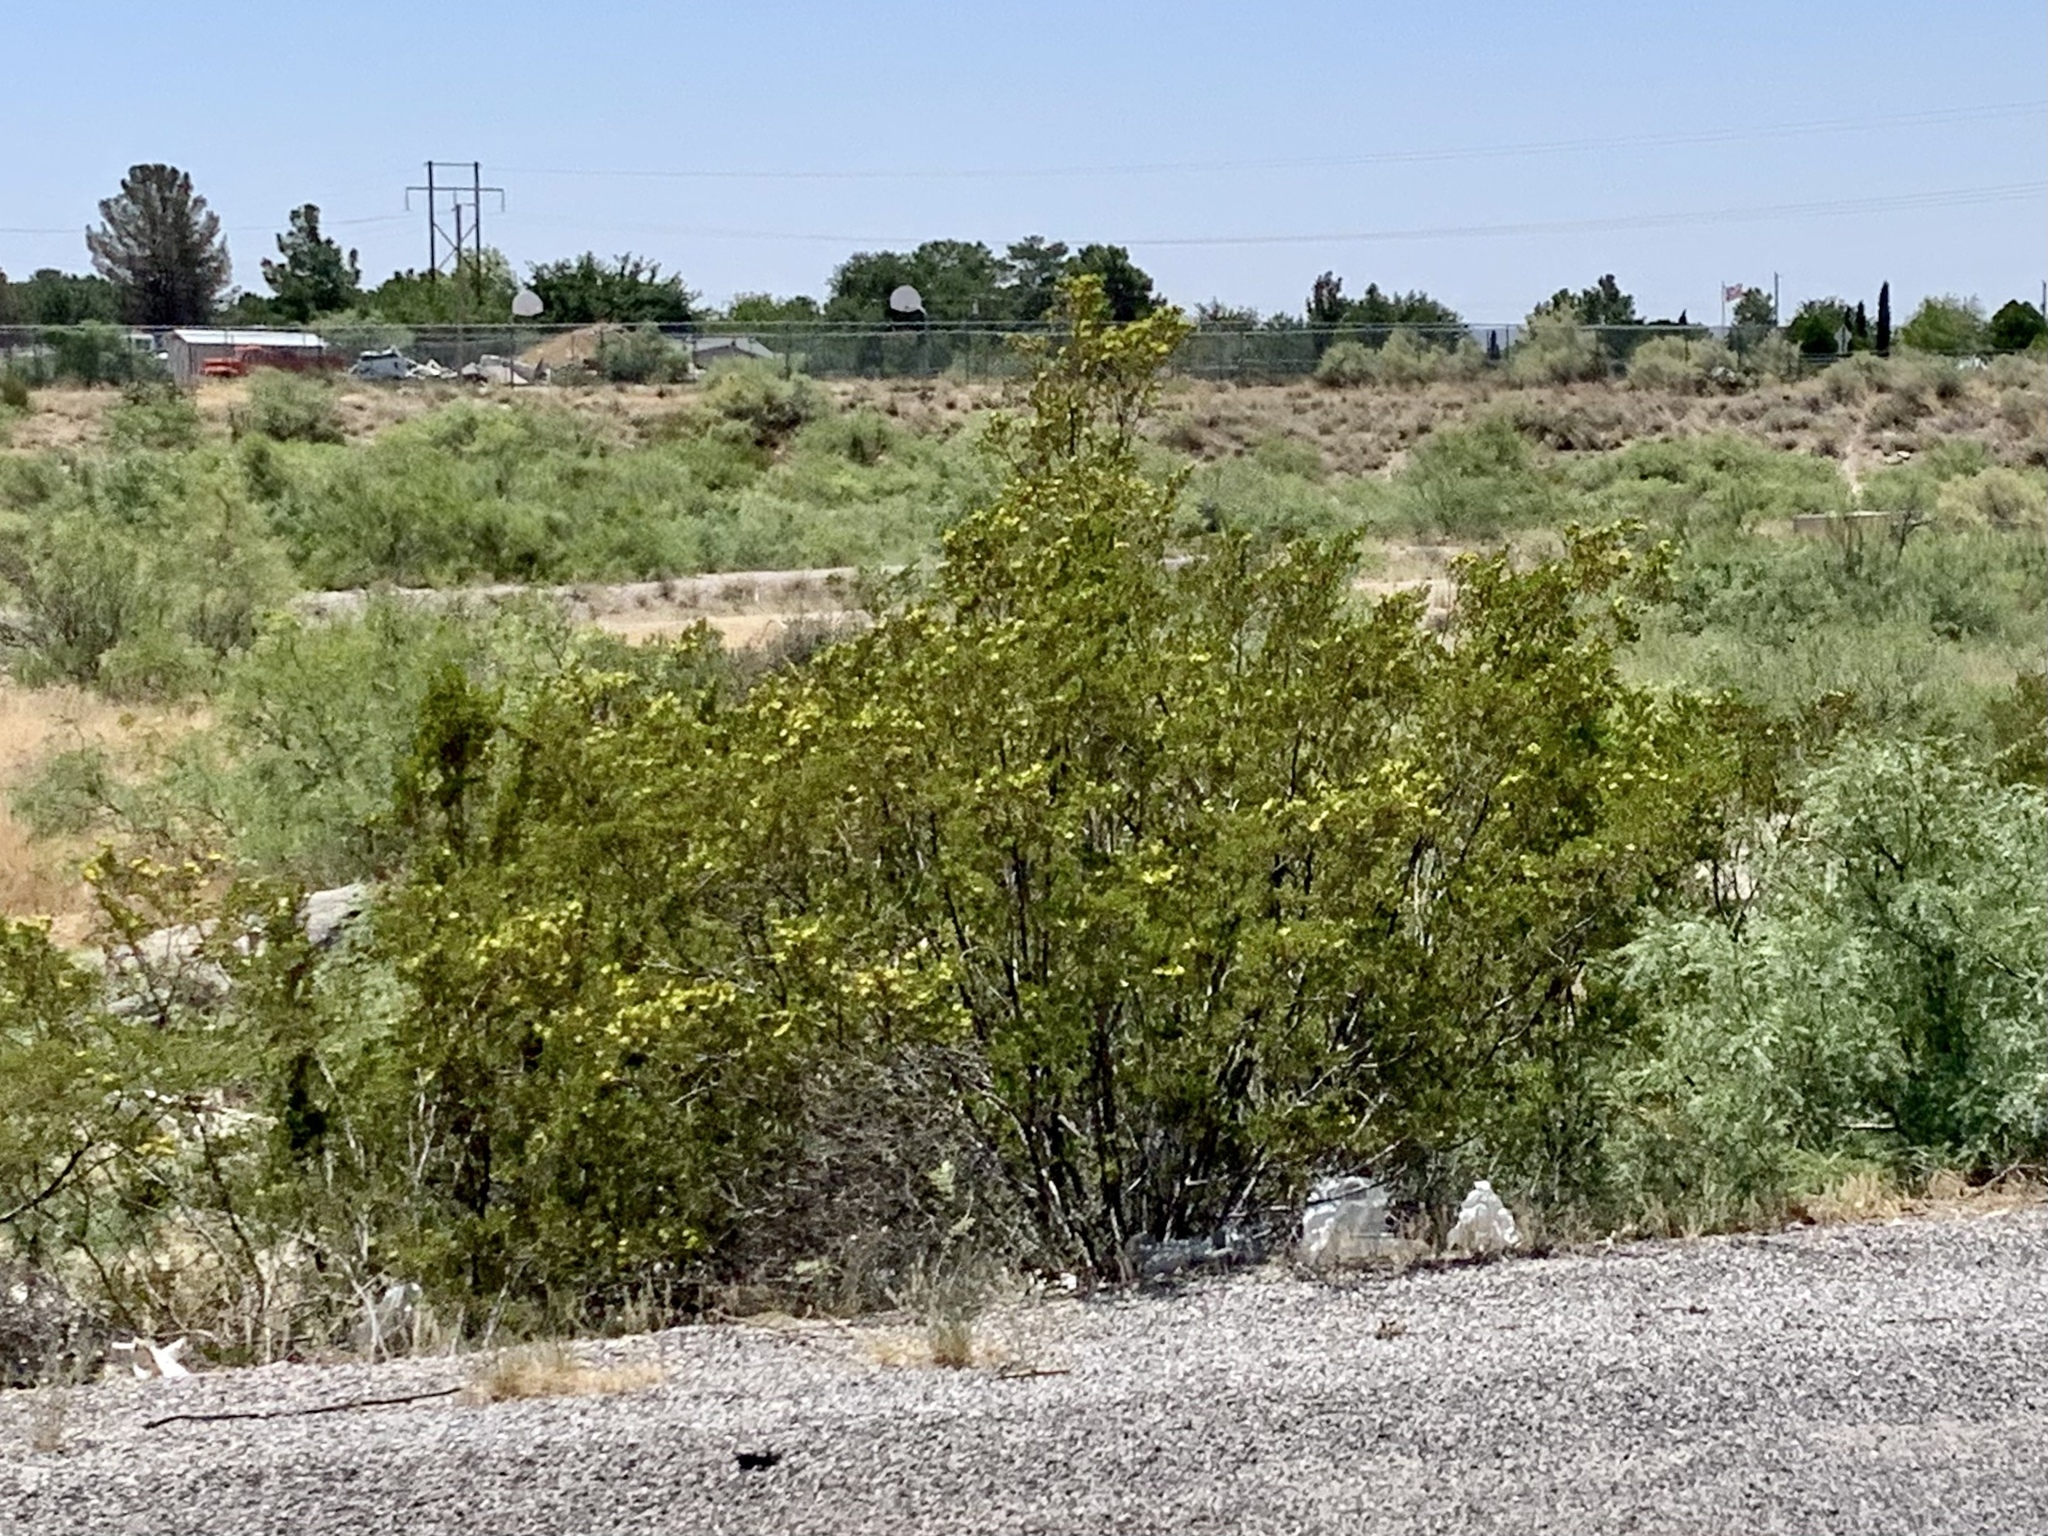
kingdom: Plantae
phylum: Tracheophyta
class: Magnoliopsida
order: Zygophyllales
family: Zygophyllaceae
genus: Larrea
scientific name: Larrea tridentata
